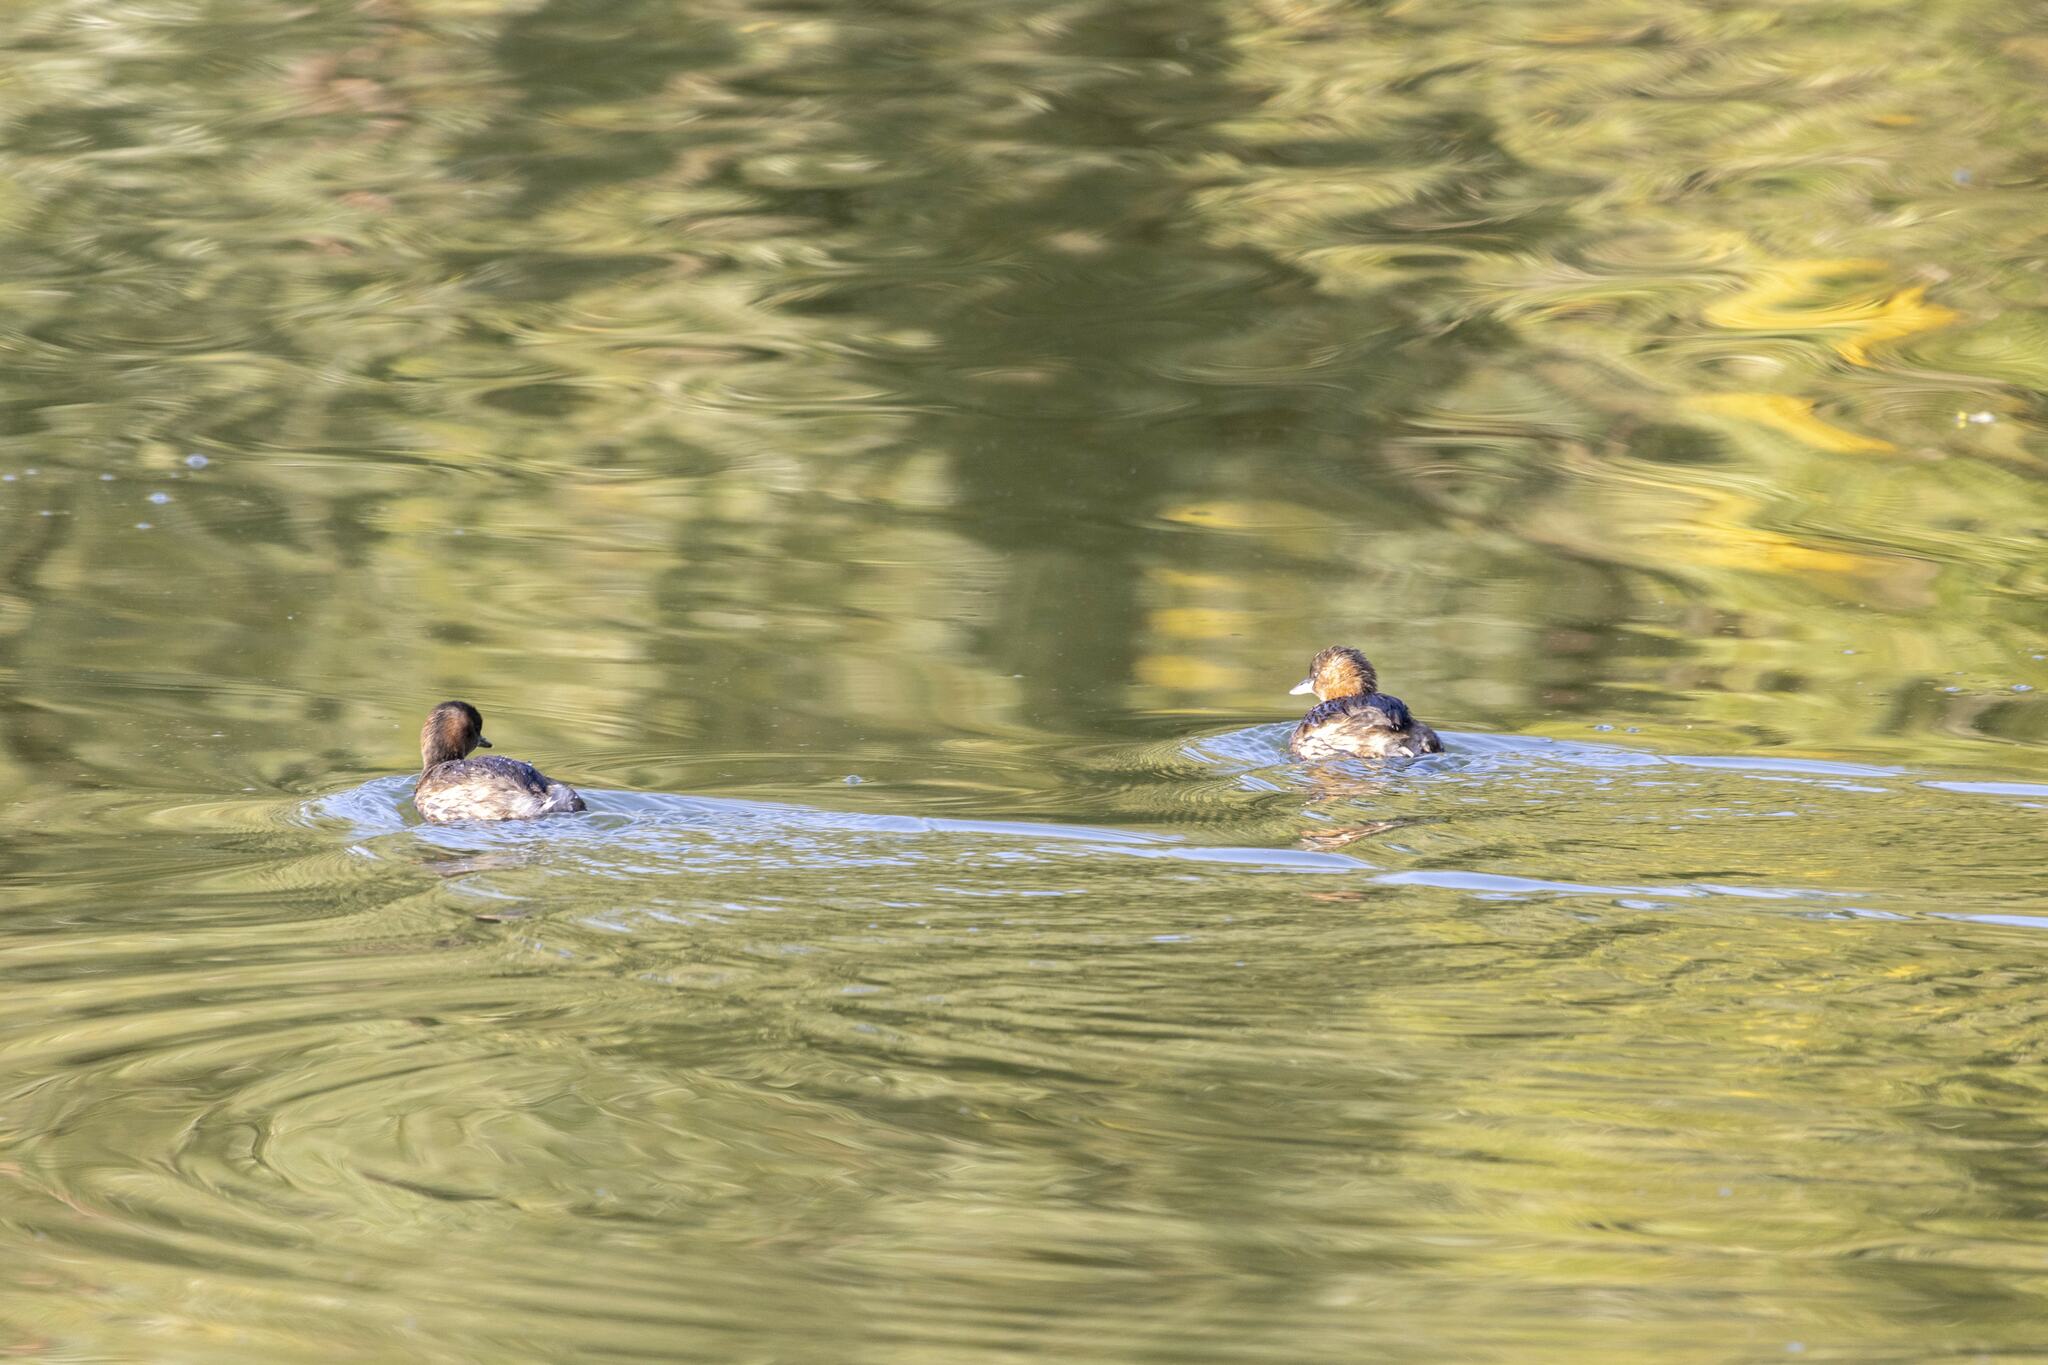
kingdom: Animalia
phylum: Chordata
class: Aves
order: Podicipediformes
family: Podicipedidae
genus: Tachybaptus
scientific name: Tachybaptus ruficollis
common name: Little grebe
